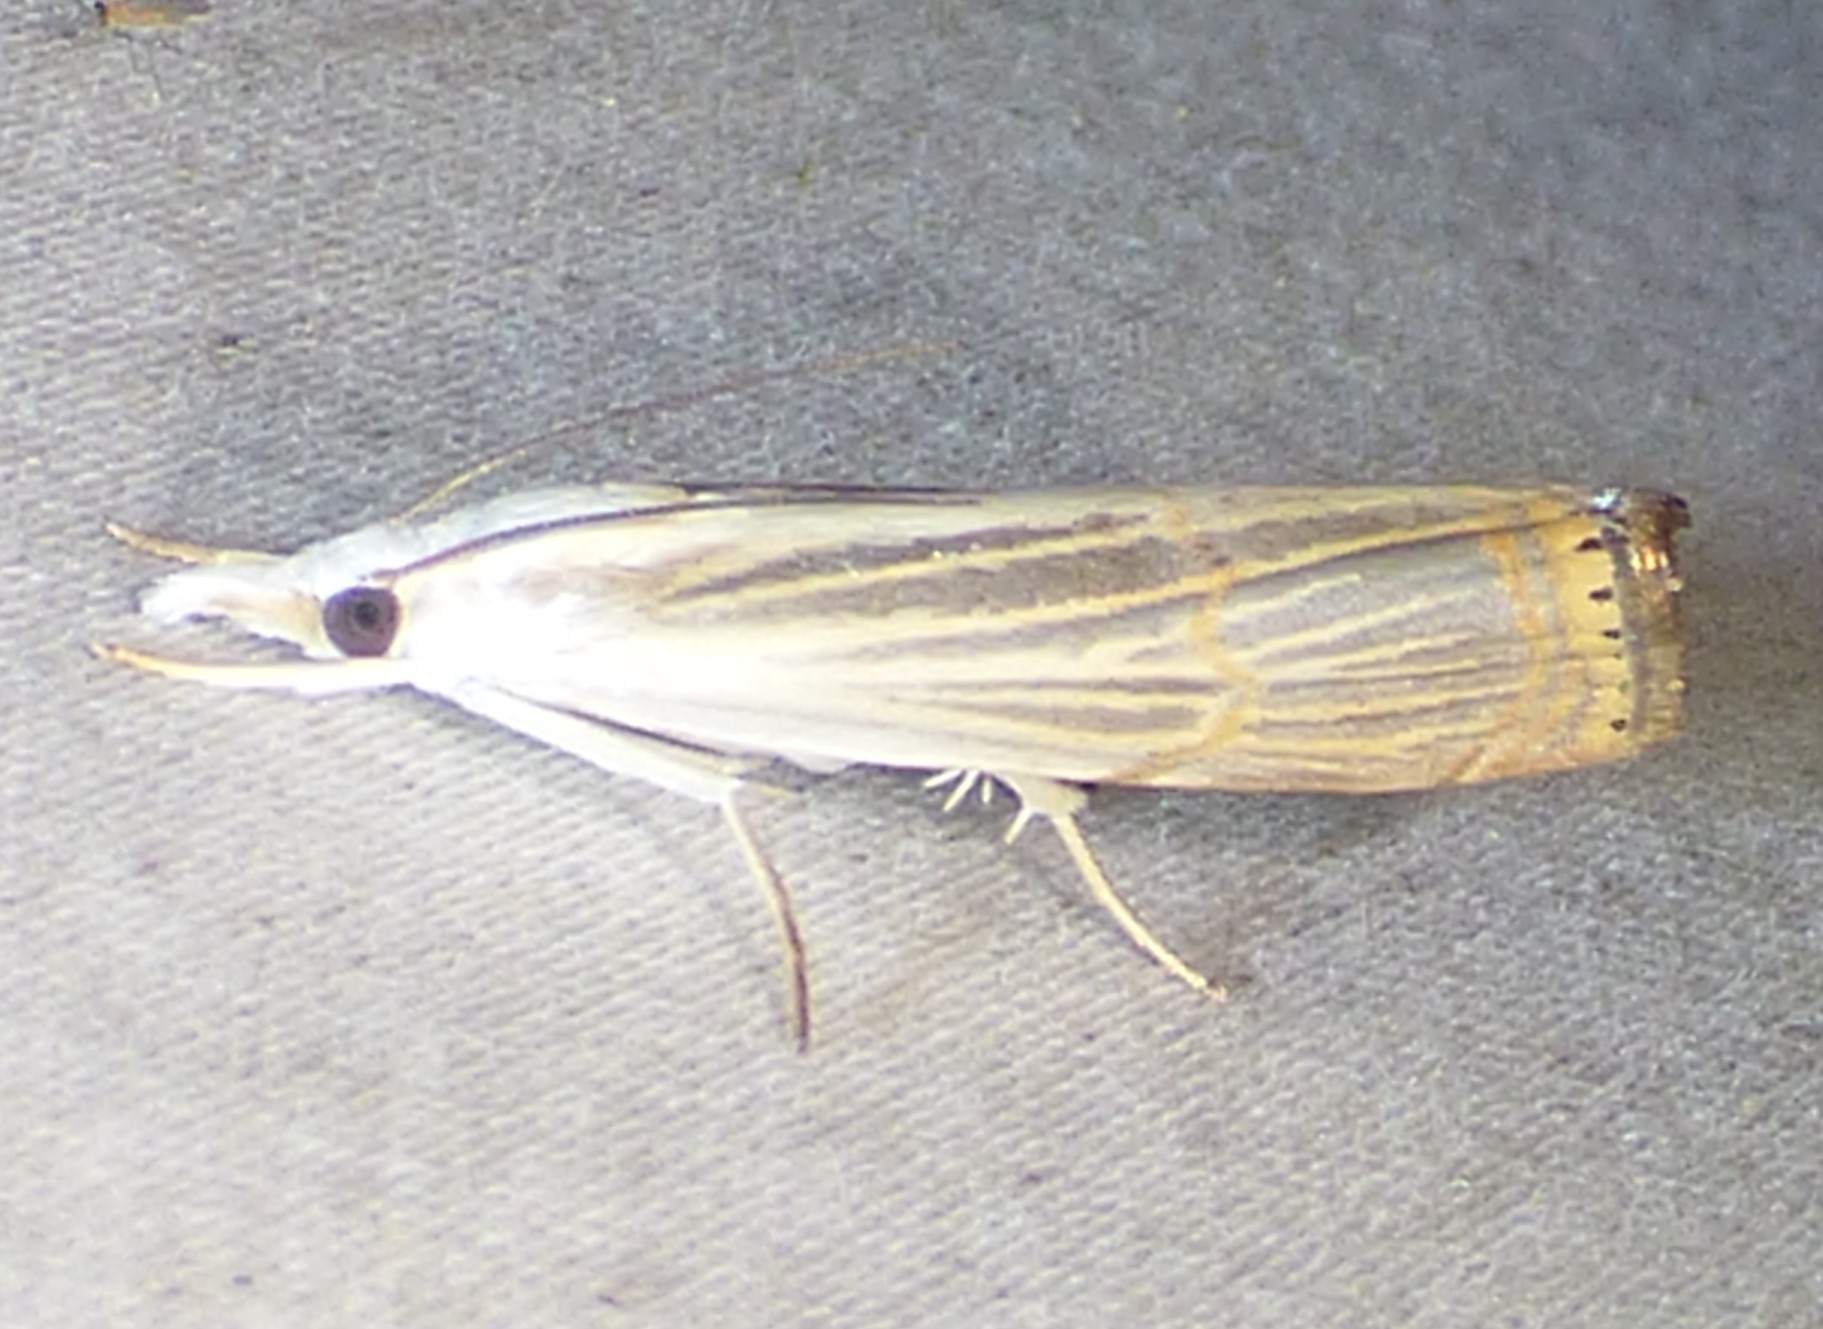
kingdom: Animalia
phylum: Arthropoda
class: Insecta
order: Lepidoptera
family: Crambidae
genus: Parapediasia
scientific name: Parapediasia decorellus
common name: Graceful grass-veneer
